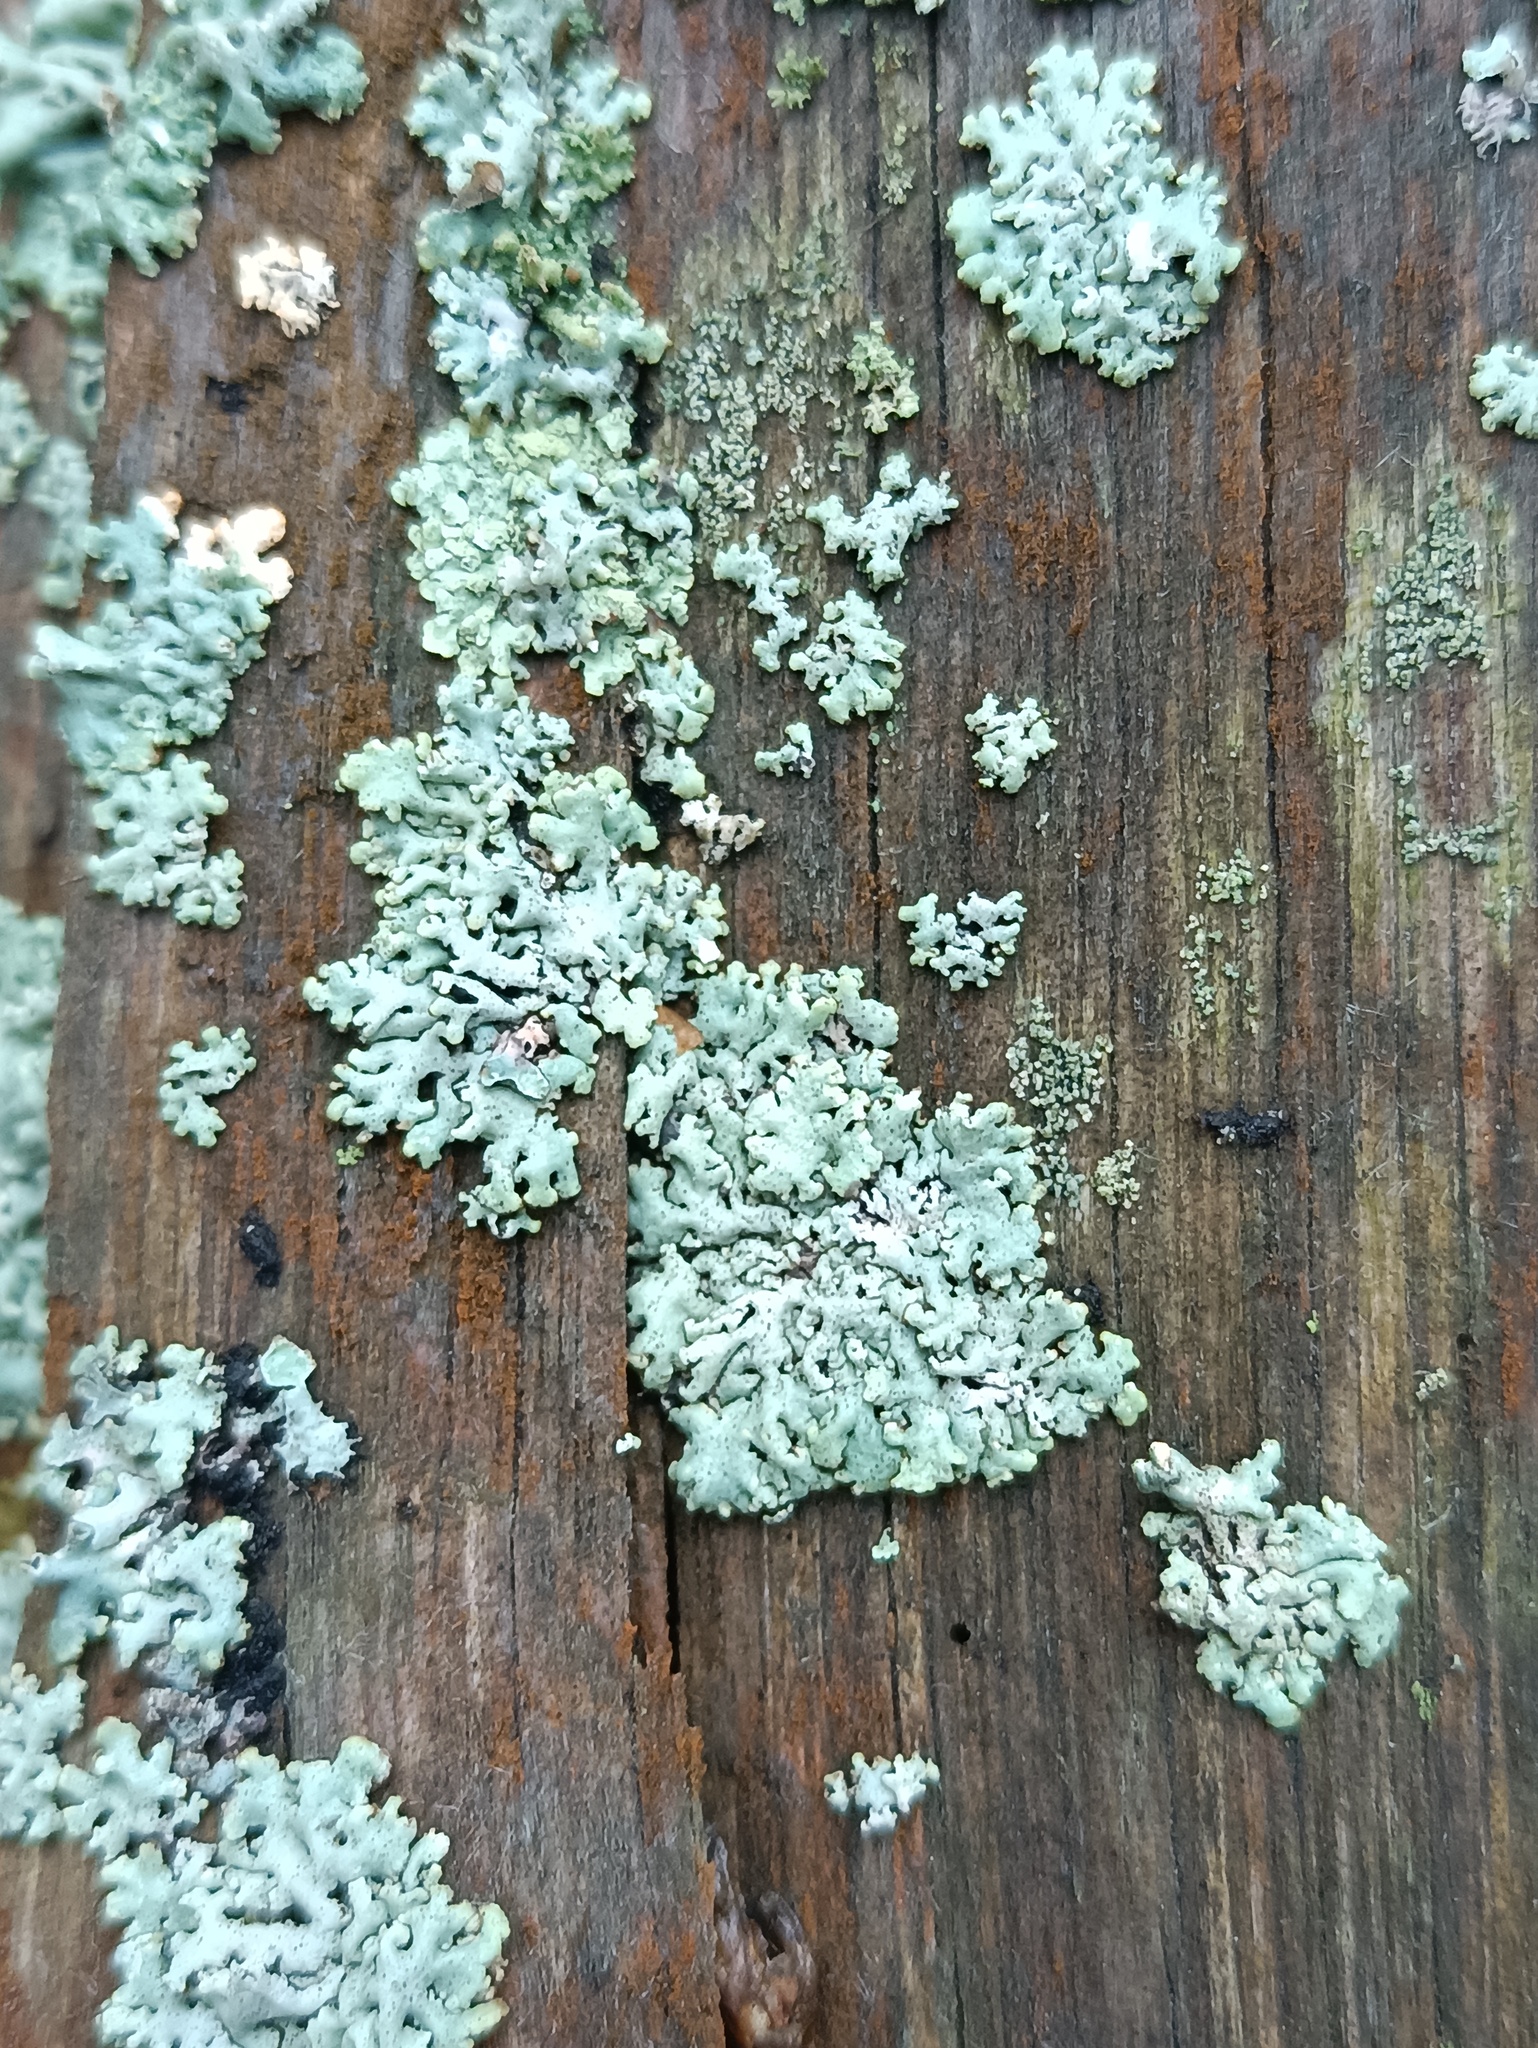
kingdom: Fungi
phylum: Ascomycota
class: Lecanoromycetes
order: Lecanorales
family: Parmeliaceae
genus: Hypogymnia
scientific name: Hypogymnia physodes
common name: Dark crottle
